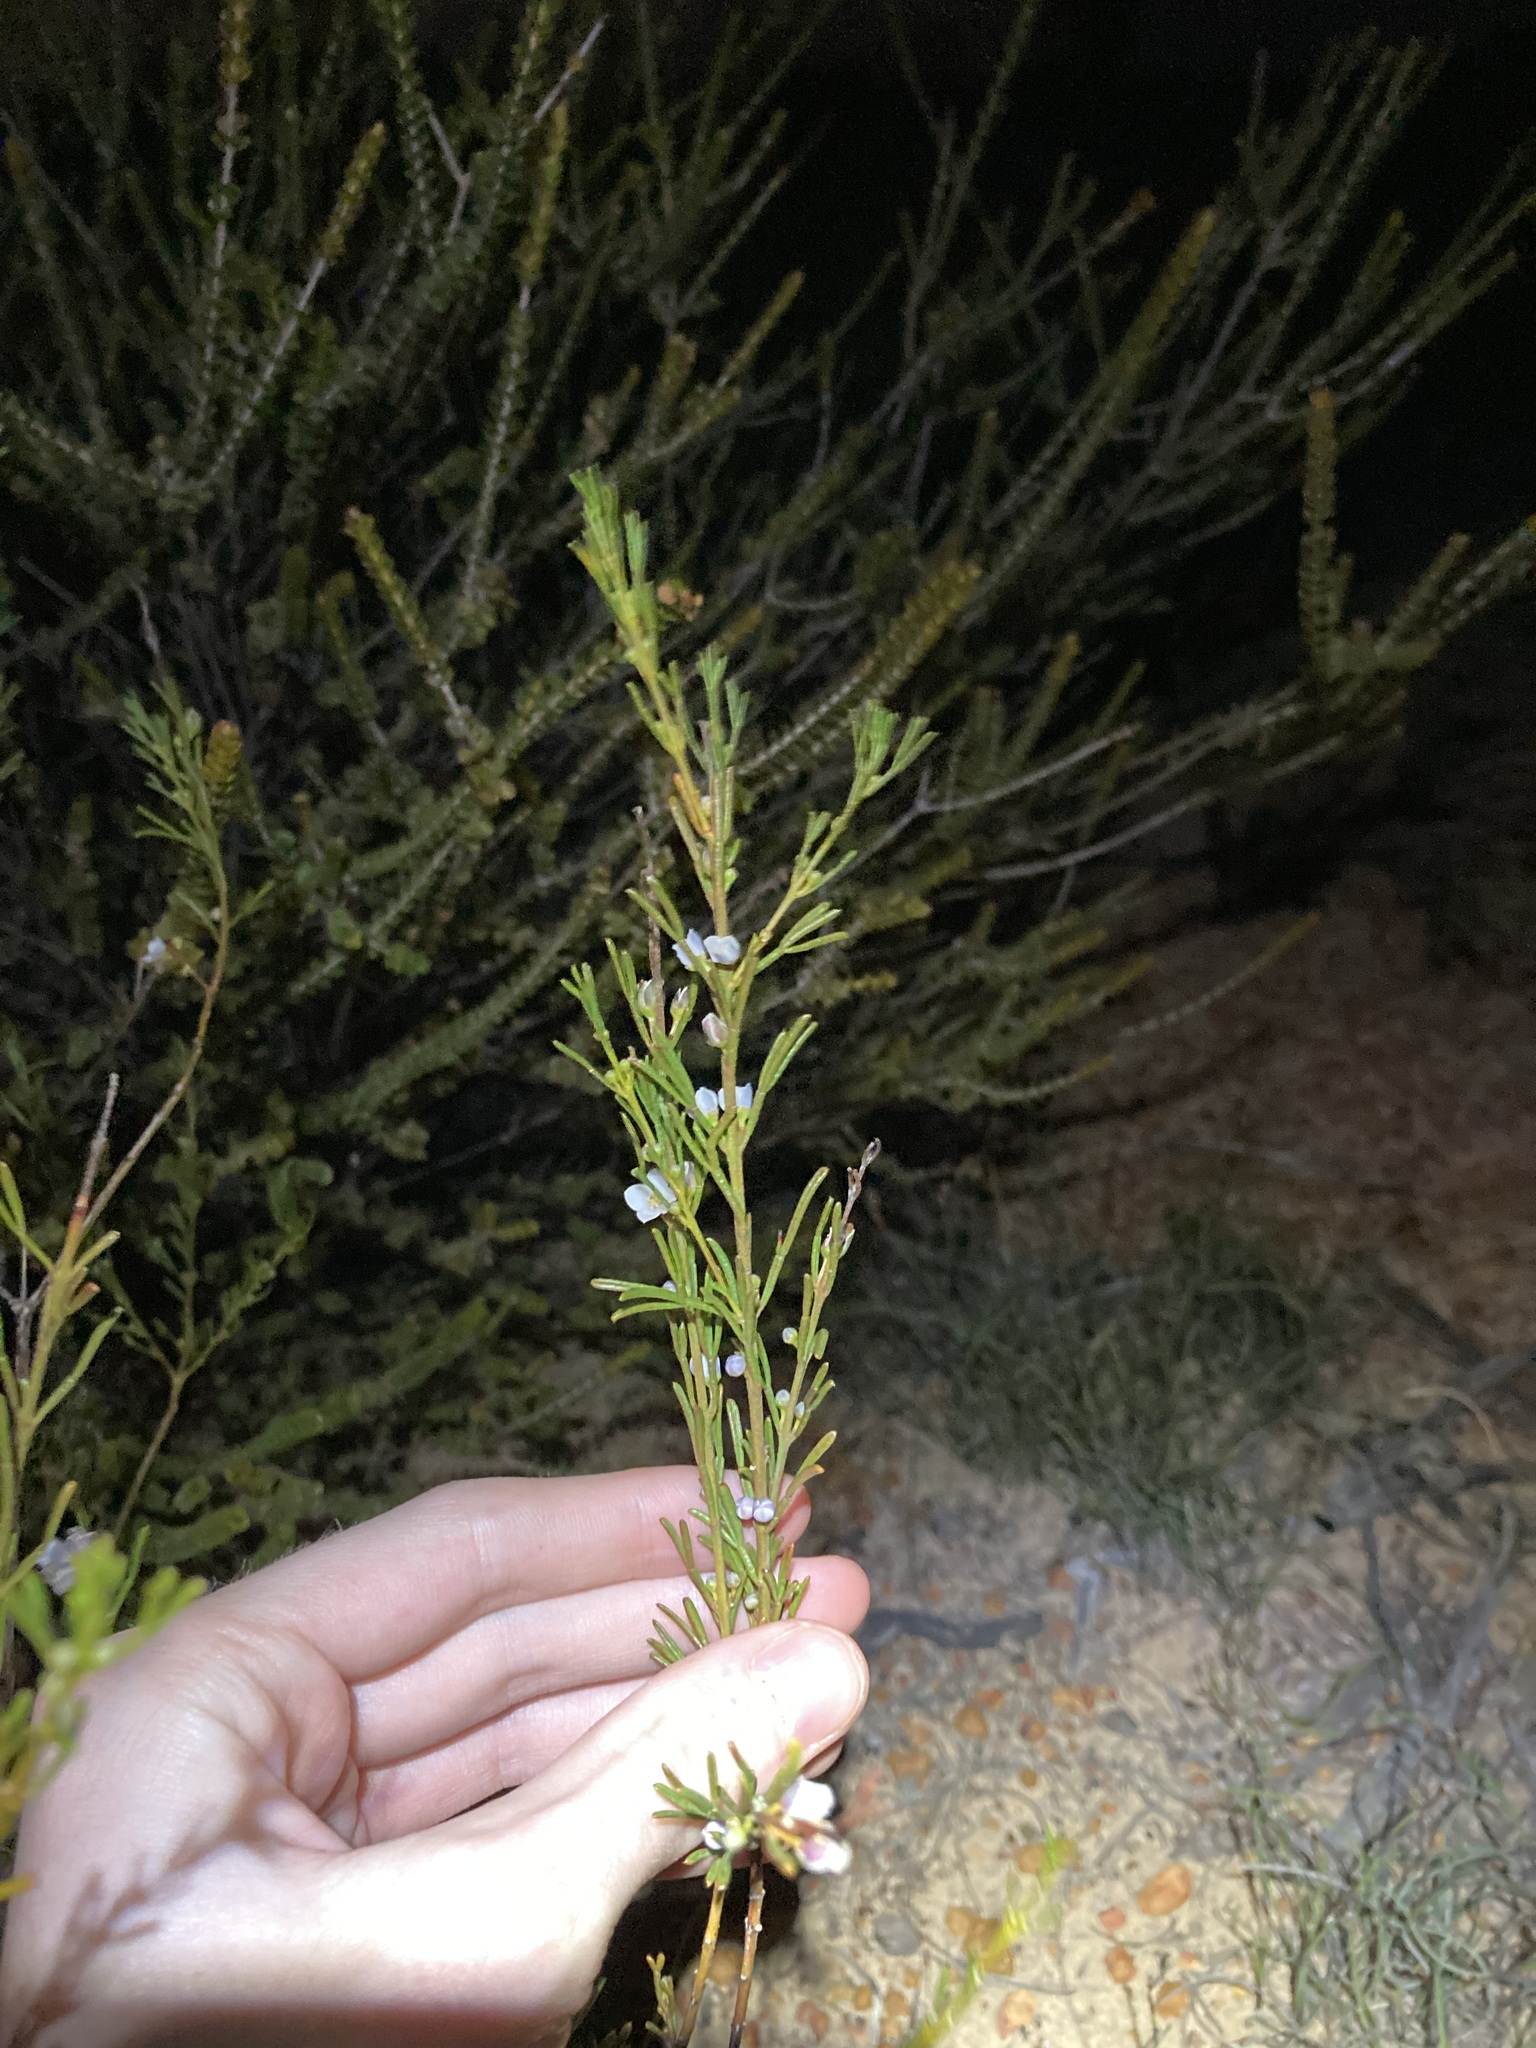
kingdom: Plantae
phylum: Tracheophyta
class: Magnoliopsida
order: Sapindales
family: Rutaceae
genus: Cyanothamnus
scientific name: Cyanothamnus ramosus
